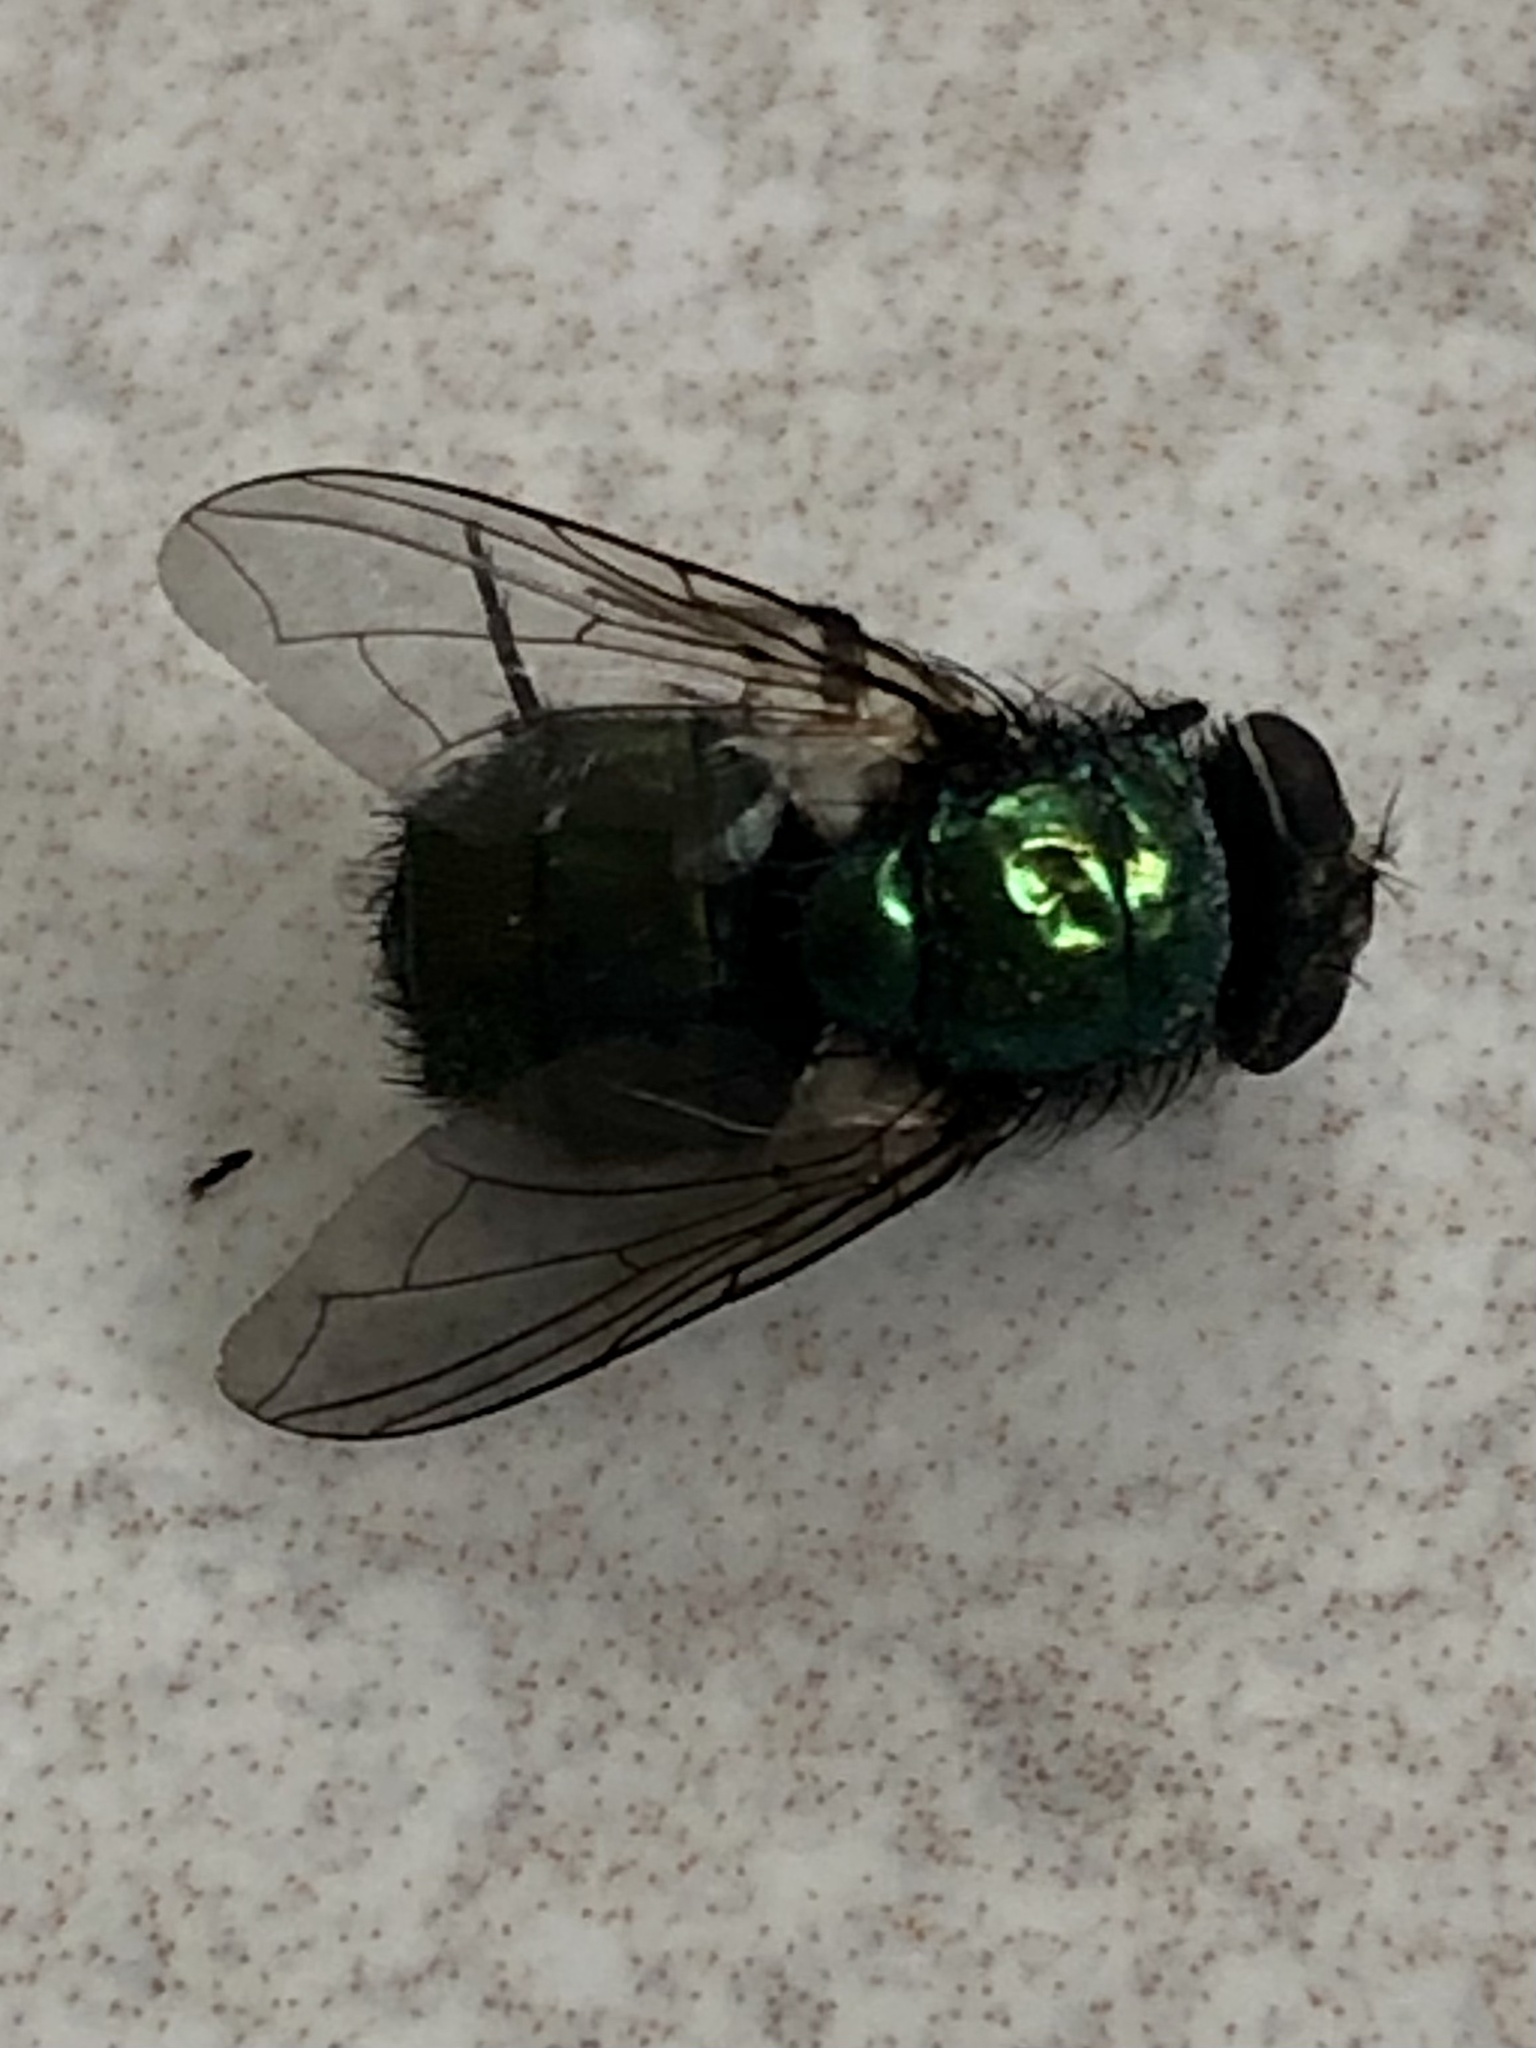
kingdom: Animalia
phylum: Arthropoda
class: Insecta
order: Diptera
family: Calliphoridae
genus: Lucilia
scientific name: Lucilia sericata
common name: Blow fly
